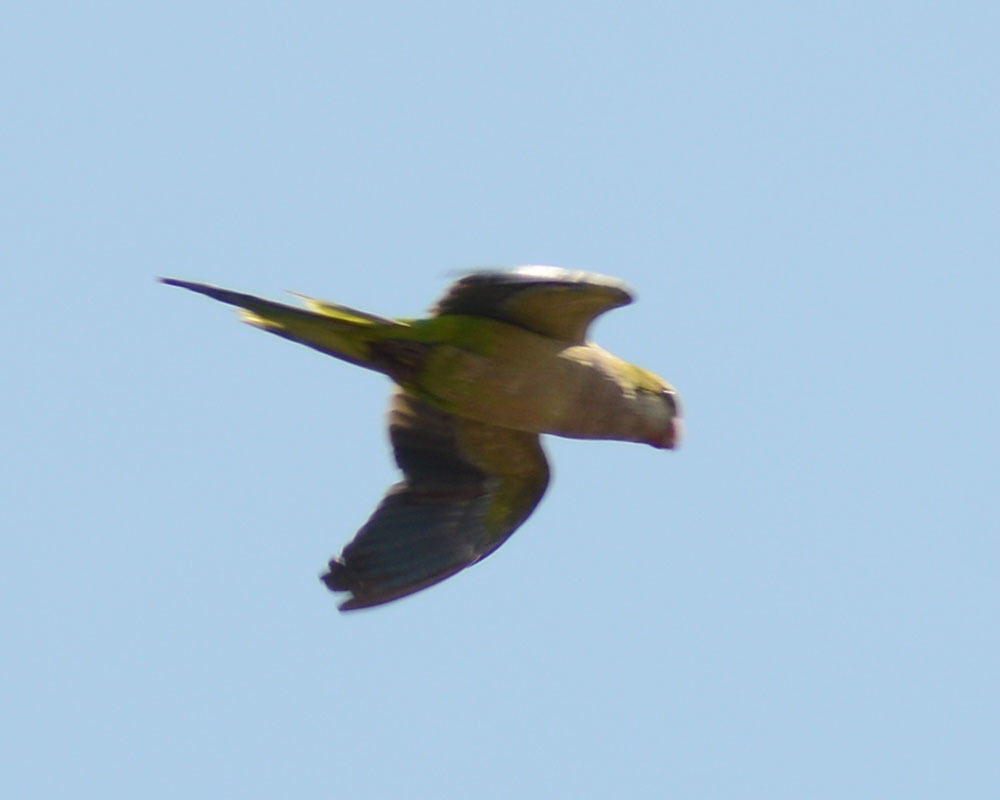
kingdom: Animalia
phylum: Chordata
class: Aves
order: Psittaciformes
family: Psittacidae
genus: Myiopsitta
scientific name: Myiopsitta monachus
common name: Monk parakeet
